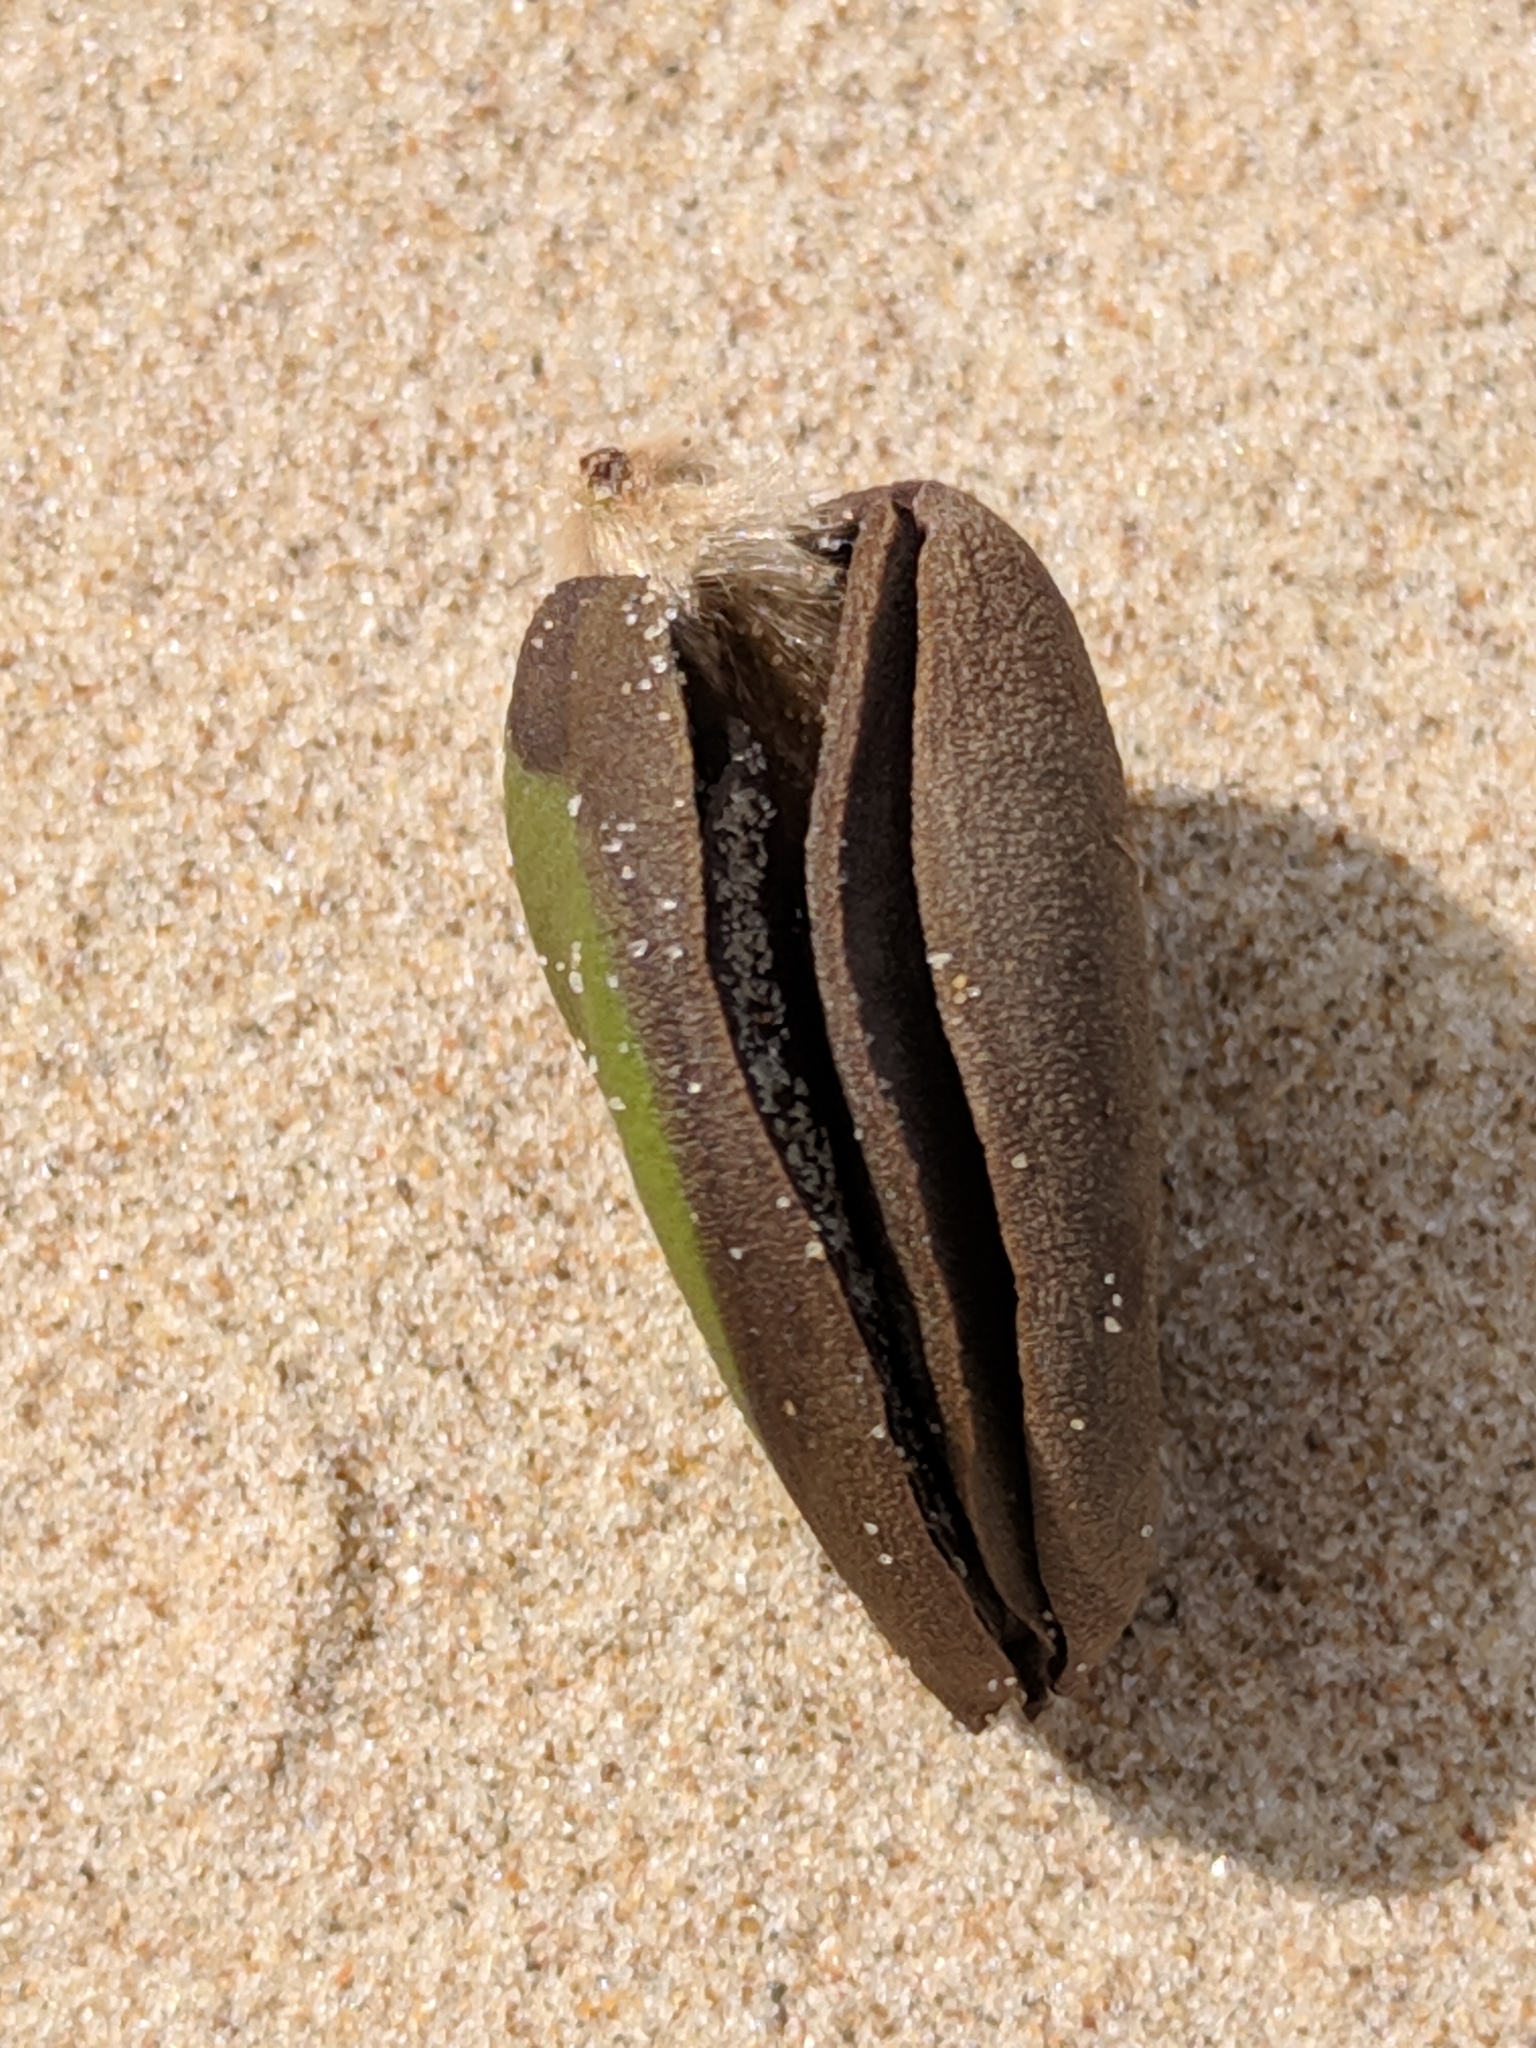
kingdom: Plantae
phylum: Tracheophyta
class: Magnoliopsida
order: Lamiales
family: Acanthaceae
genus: Avicennia
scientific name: Avicennia germinans
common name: Black mangrove
